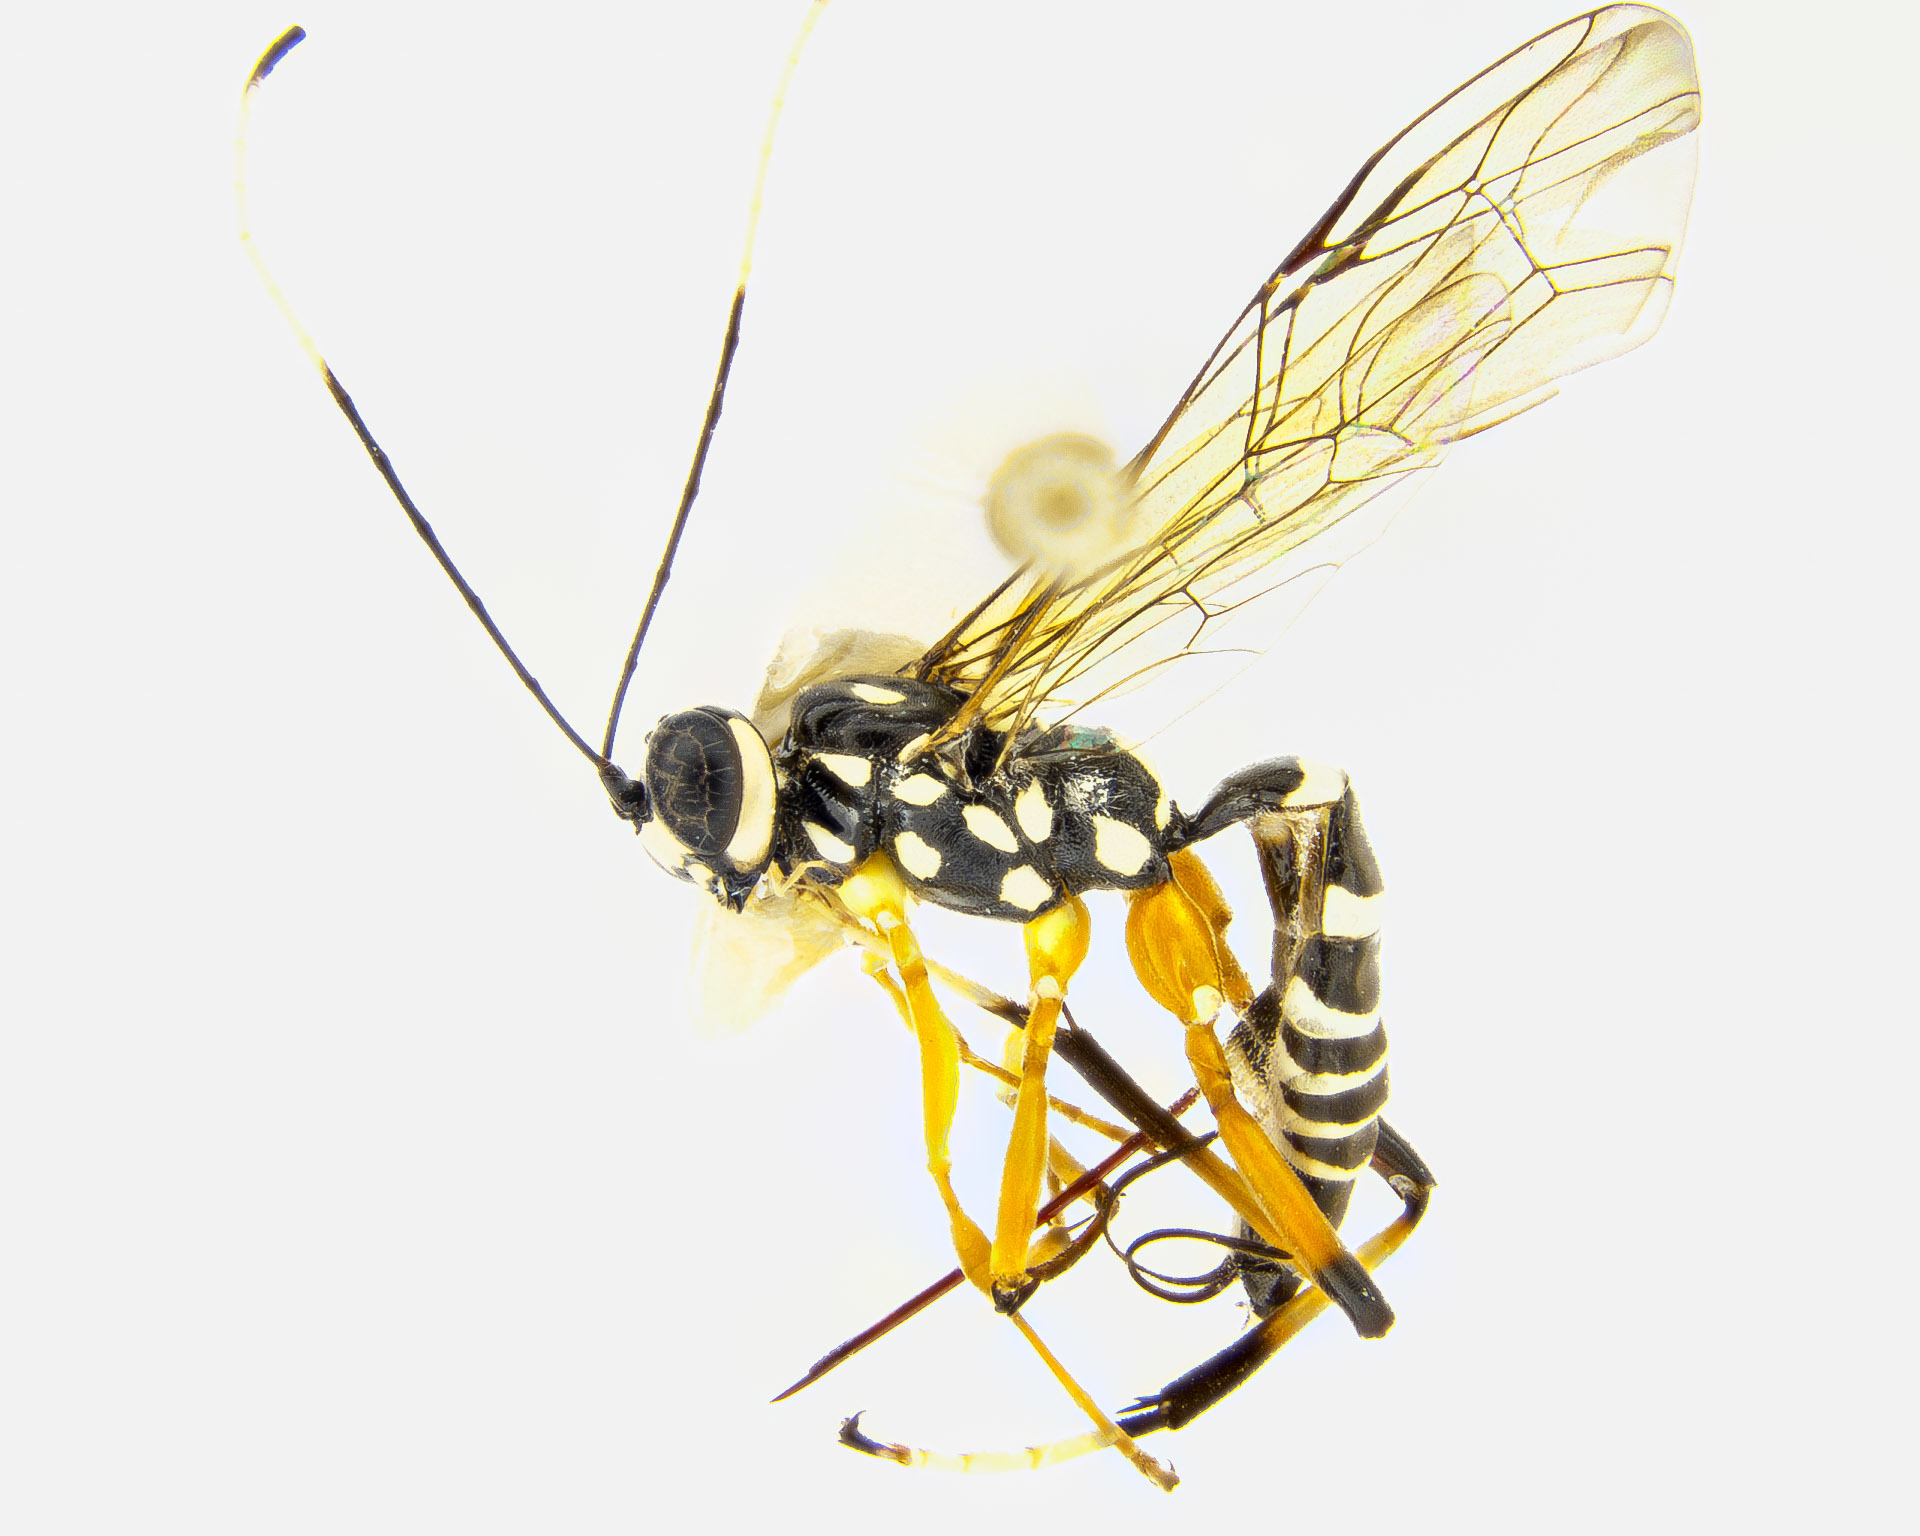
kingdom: Animalia
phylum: Arthropoda
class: Insecta
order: Hymenoptera
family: Ichneumonidae
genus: Xanthocryptus
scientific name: Xanthocryptus novozealandicus
